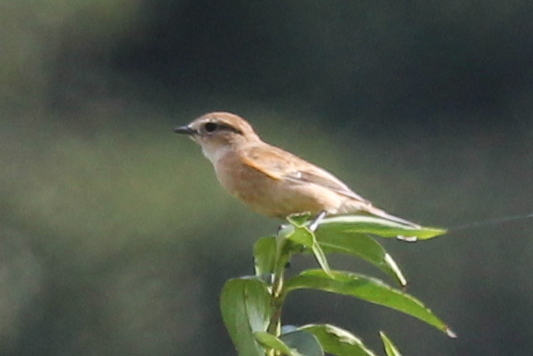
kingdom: Animalia
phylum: Chordata
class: Aves
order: Passeriformes
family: Muscicapidae
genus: Saxicola
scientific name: Saxicola stejnegeri
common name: Stejneger's stonechat
